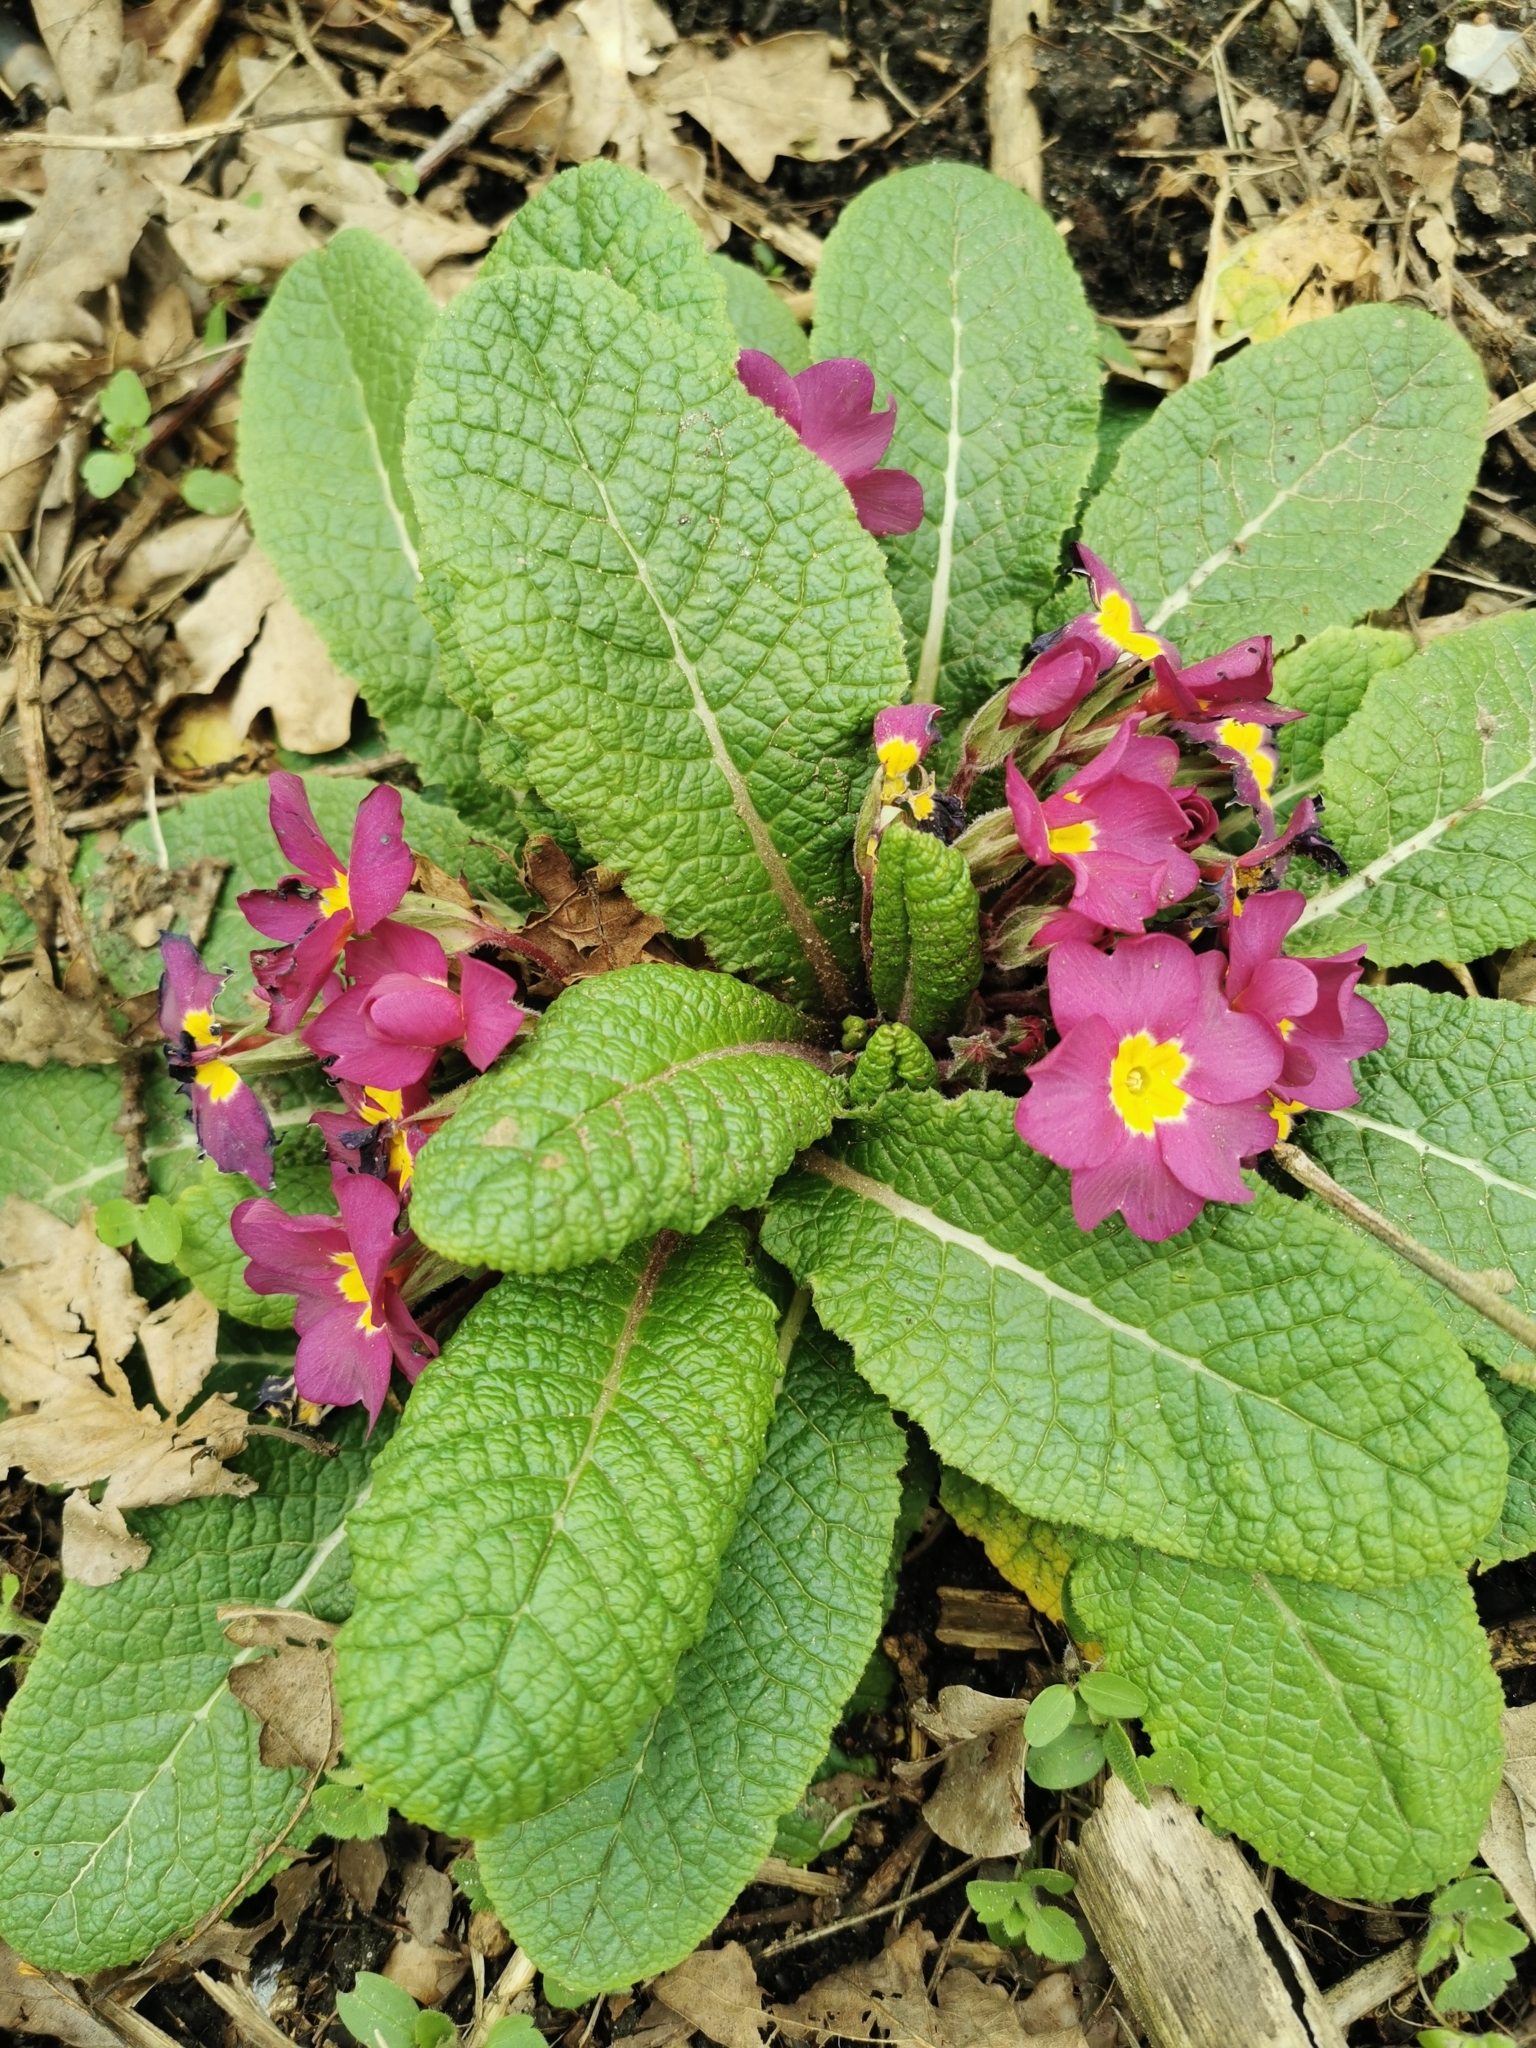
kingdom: Plantae
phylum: Tracheophyta
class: Magnoliopsida
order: Ericales
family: Primulaceae
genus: Primula
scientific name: Primula vulgaris
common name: Primrose
